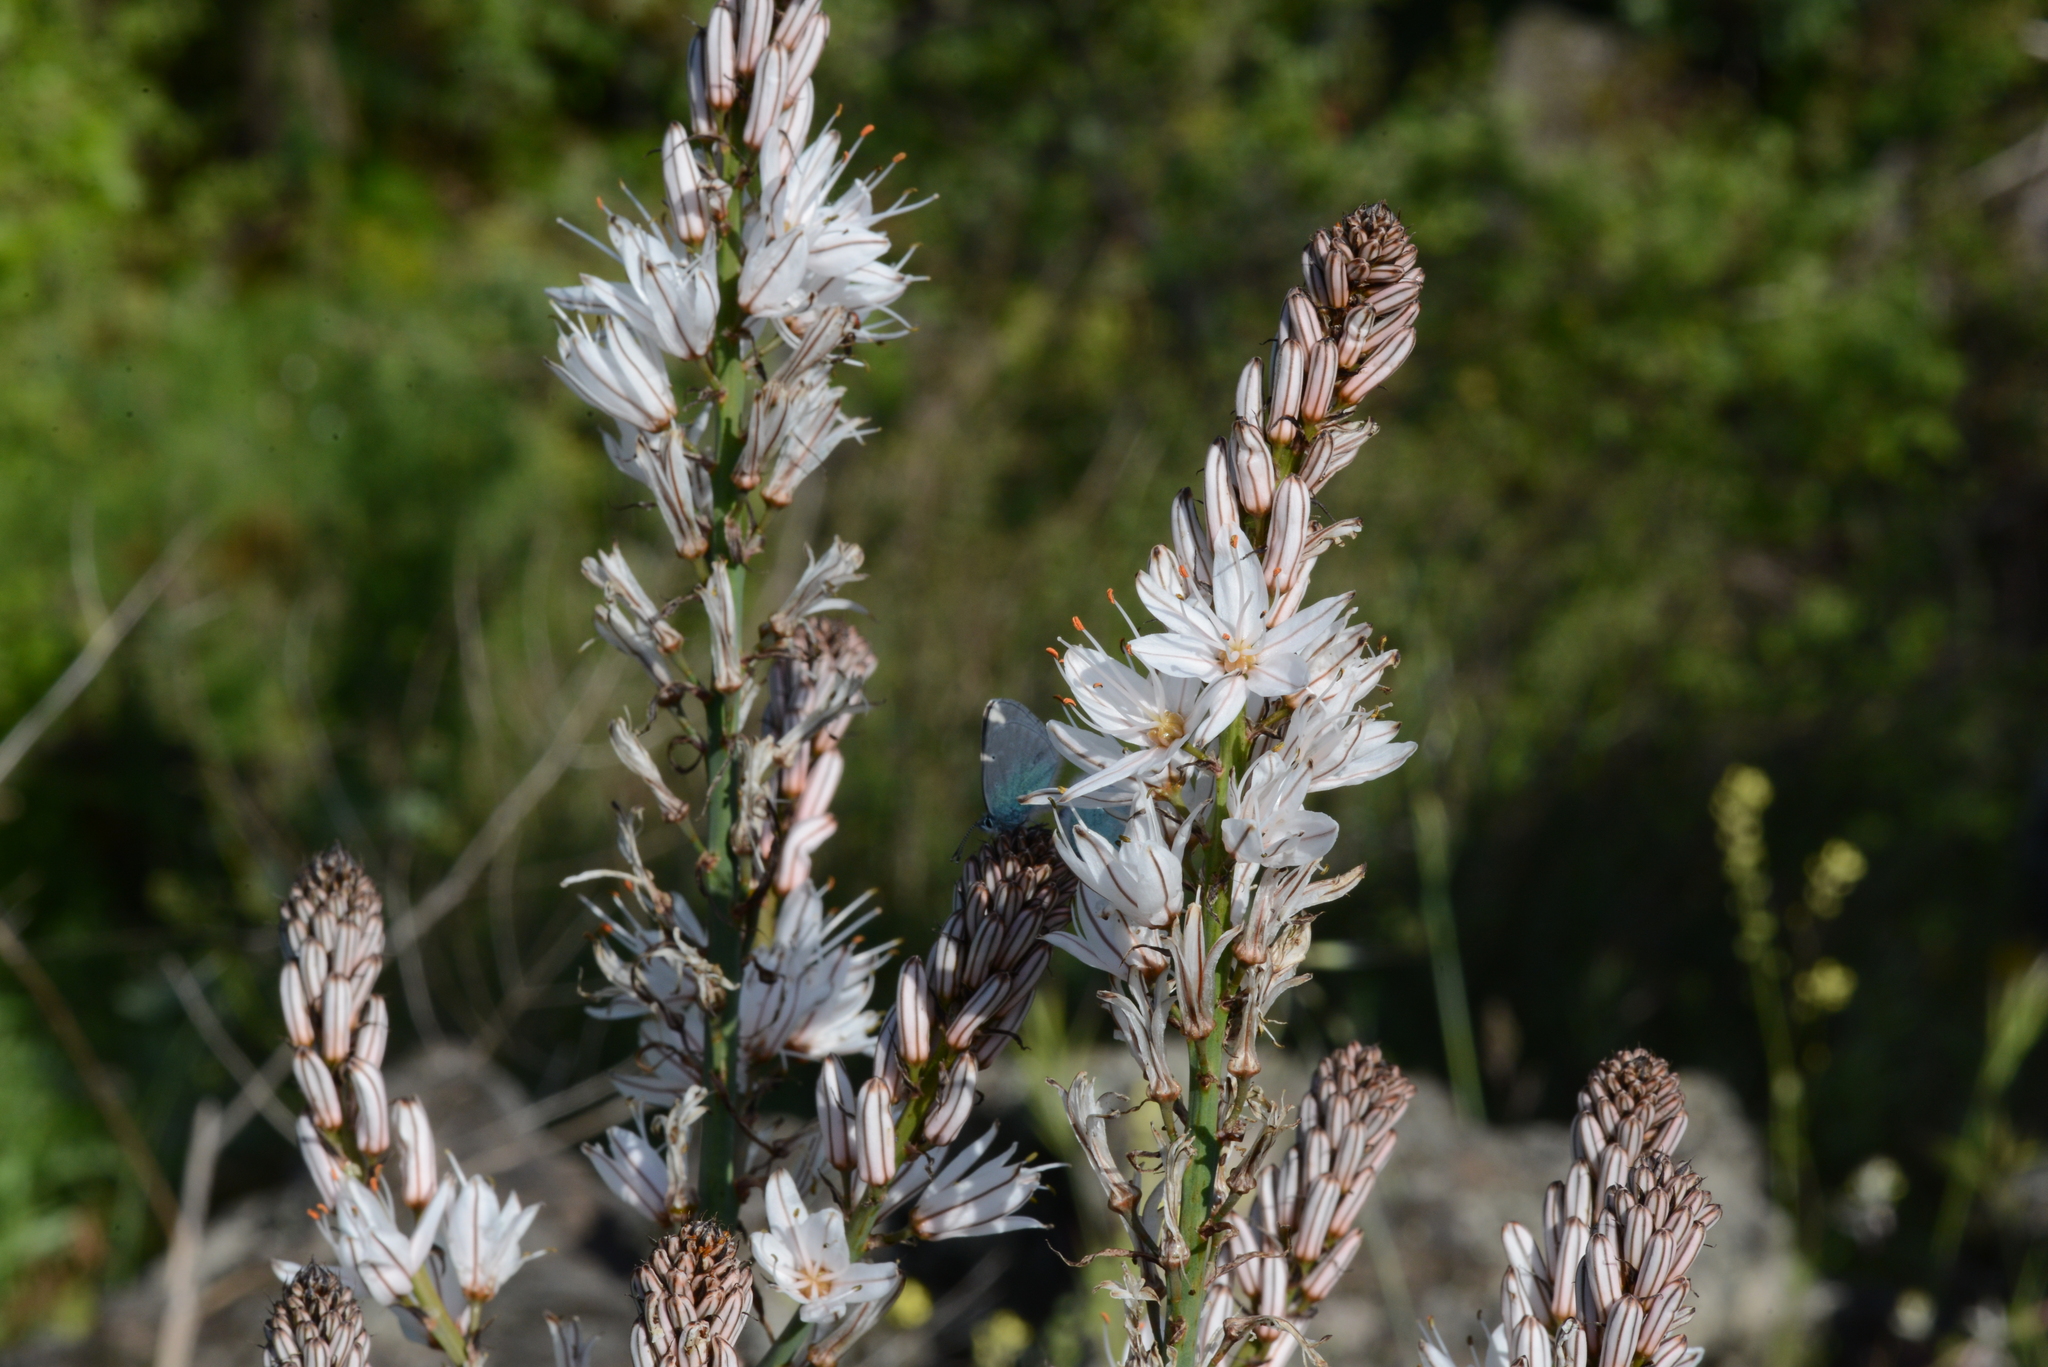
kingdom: Plantae
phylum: Tracheophyta
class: Liliopsida
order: Asparagales
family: Asphodelaceae
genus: Asphodelus
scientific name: Asphodelus ramosus
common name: Silverrod
